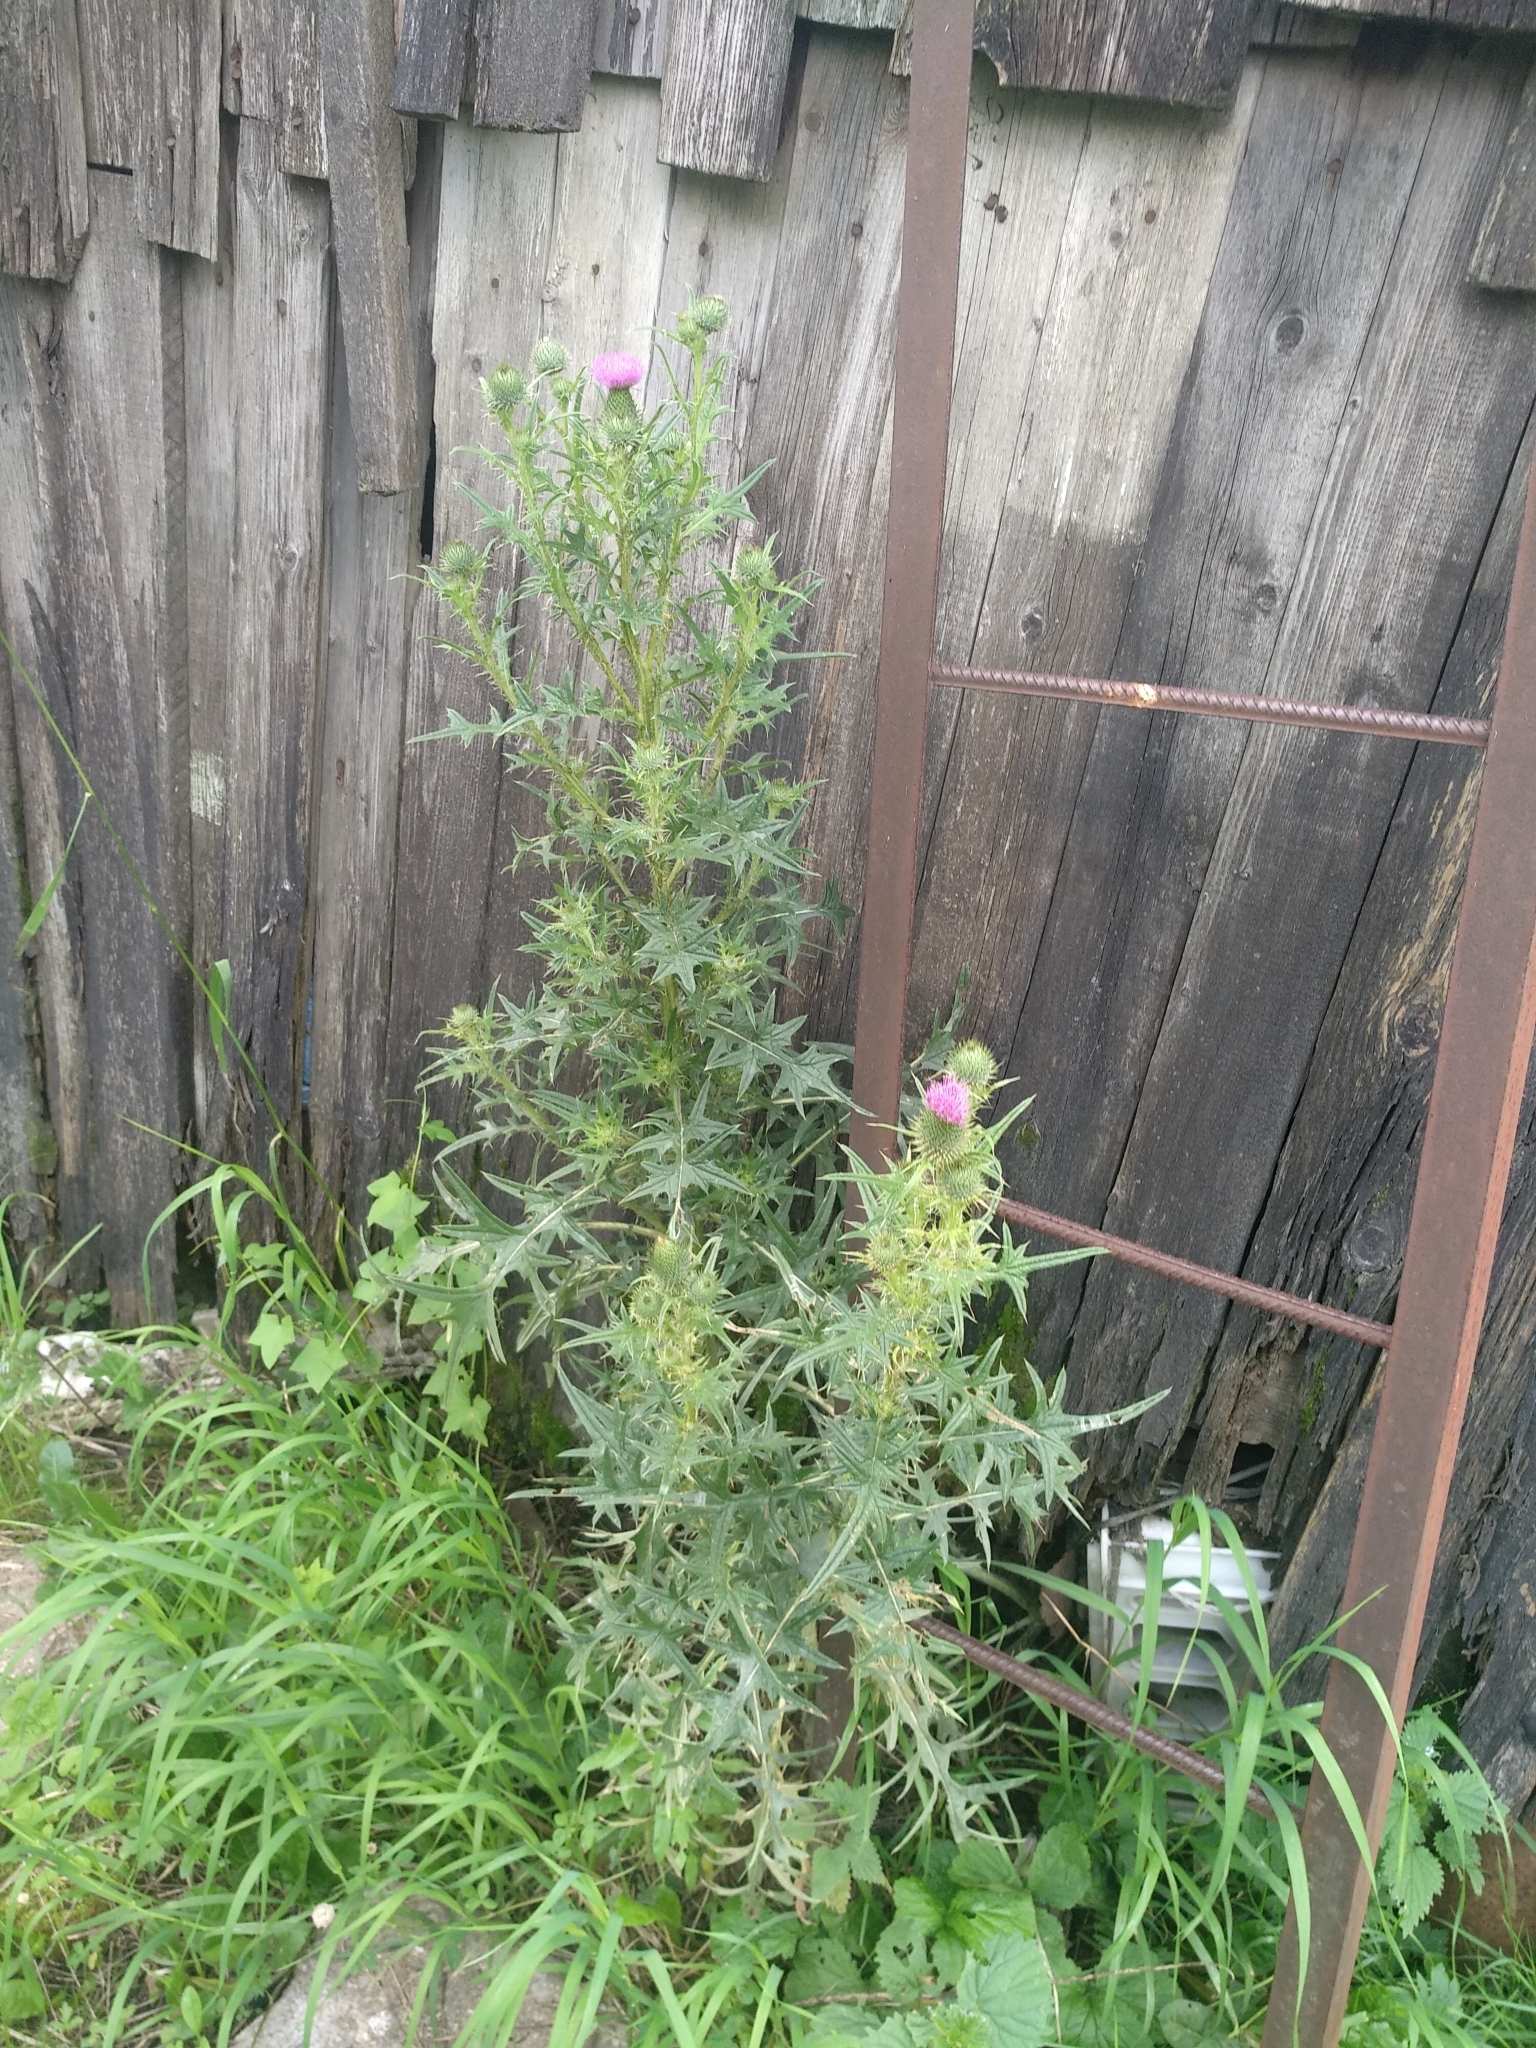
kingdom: Plantae
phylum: Tracheophyta
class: Magnoliopsida
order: Asterales
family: Asteraceae
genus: Cirsium
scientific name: Cirsium vulgare
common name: Bull thistle
